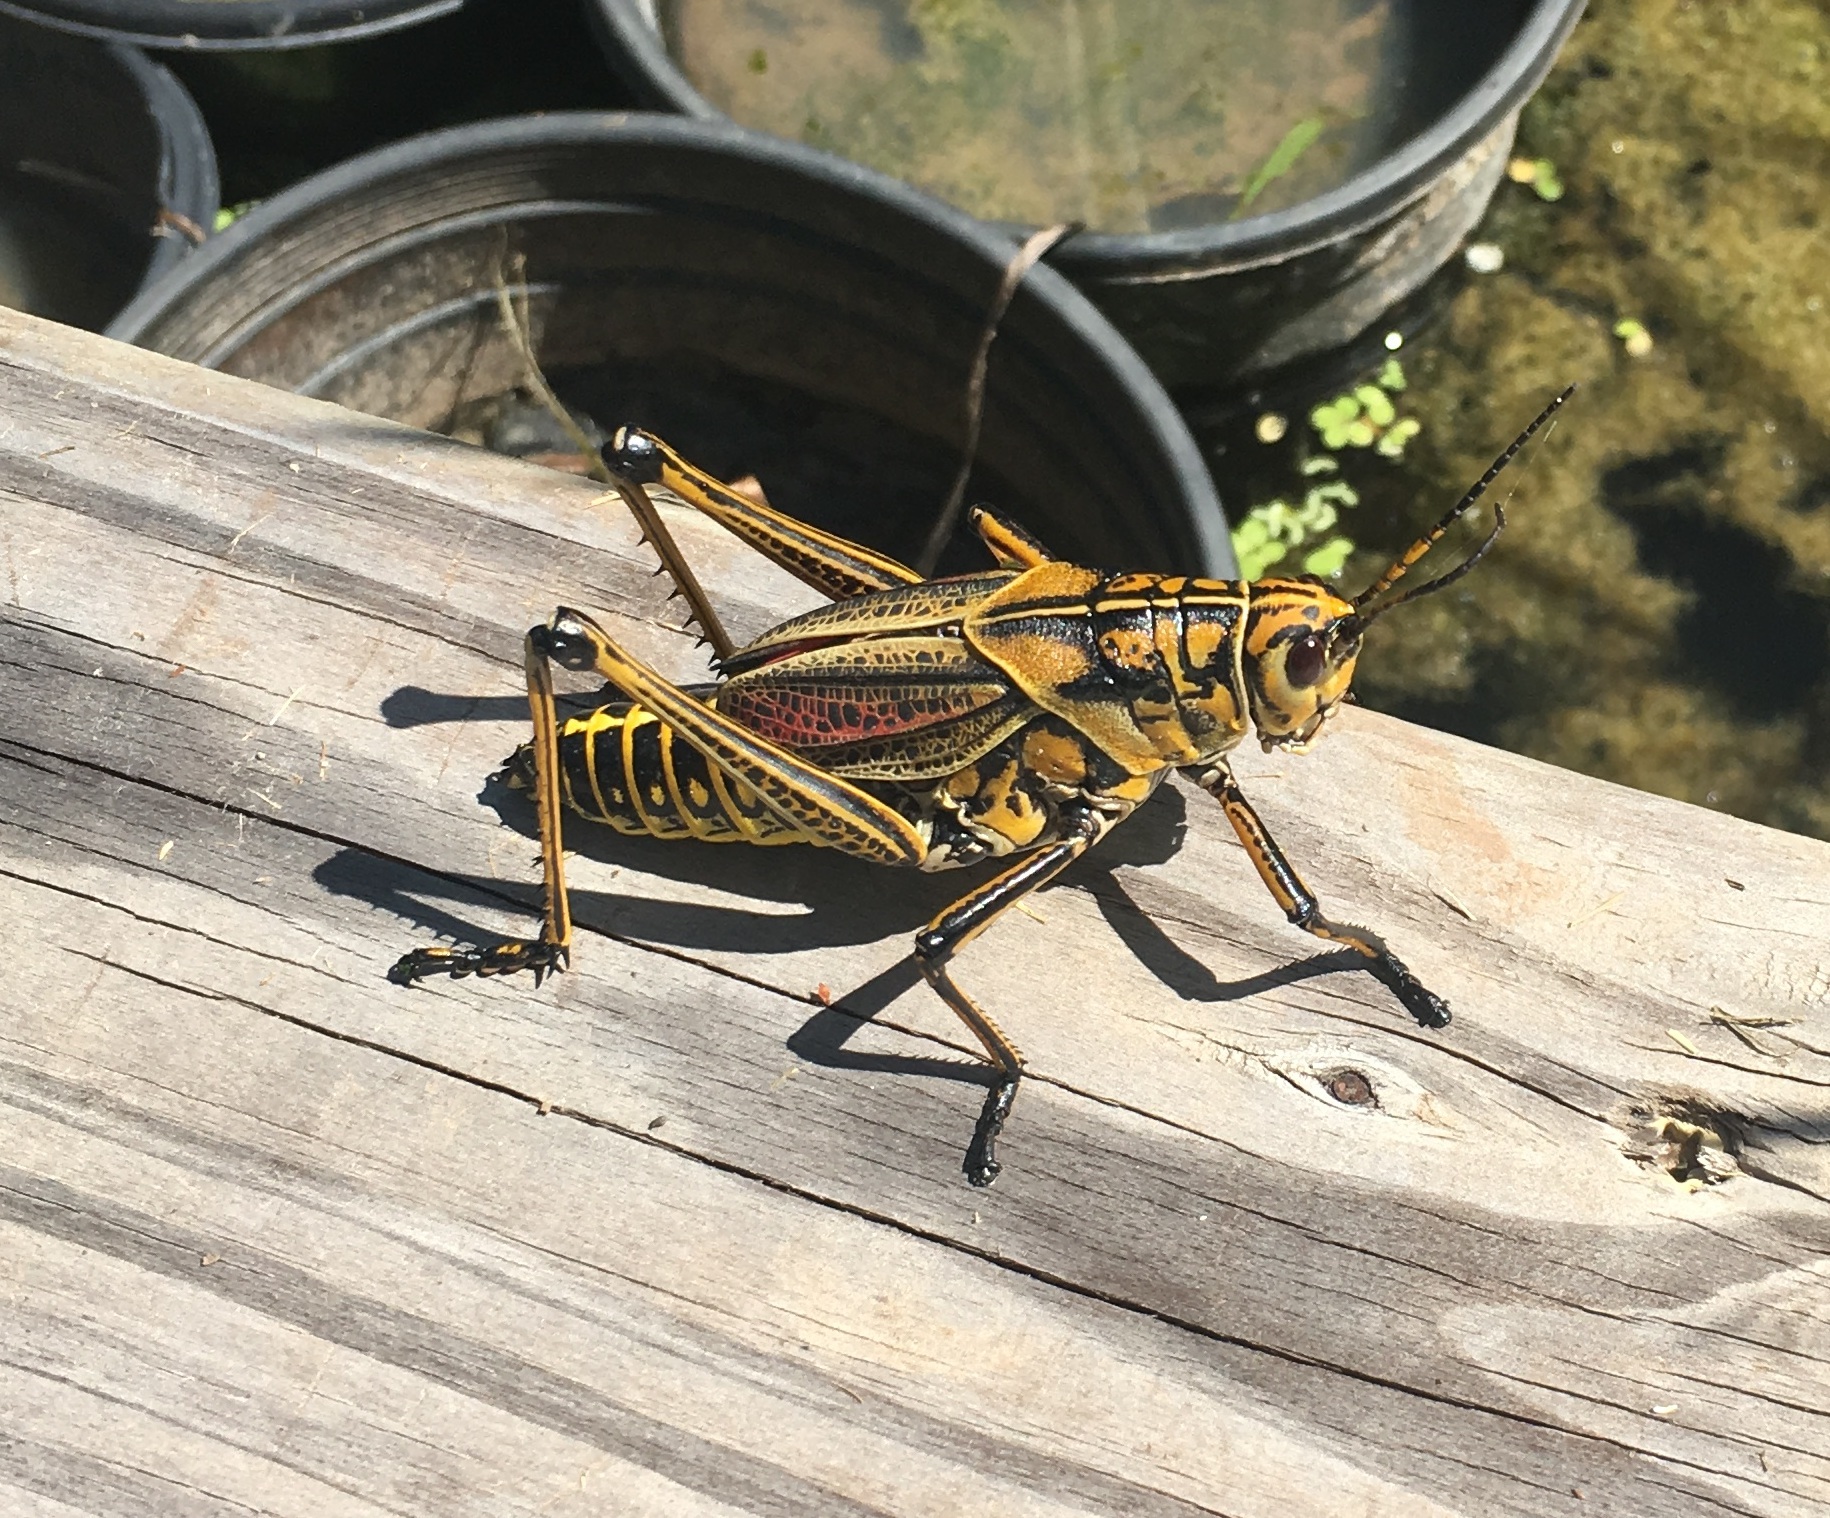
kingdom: Animalia
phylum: Arthropoda
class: Insecta
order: Orthoptera
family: Romaleidae
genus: Romalea
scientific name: Romalea microptera
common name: Eastern lubber grasshopper
